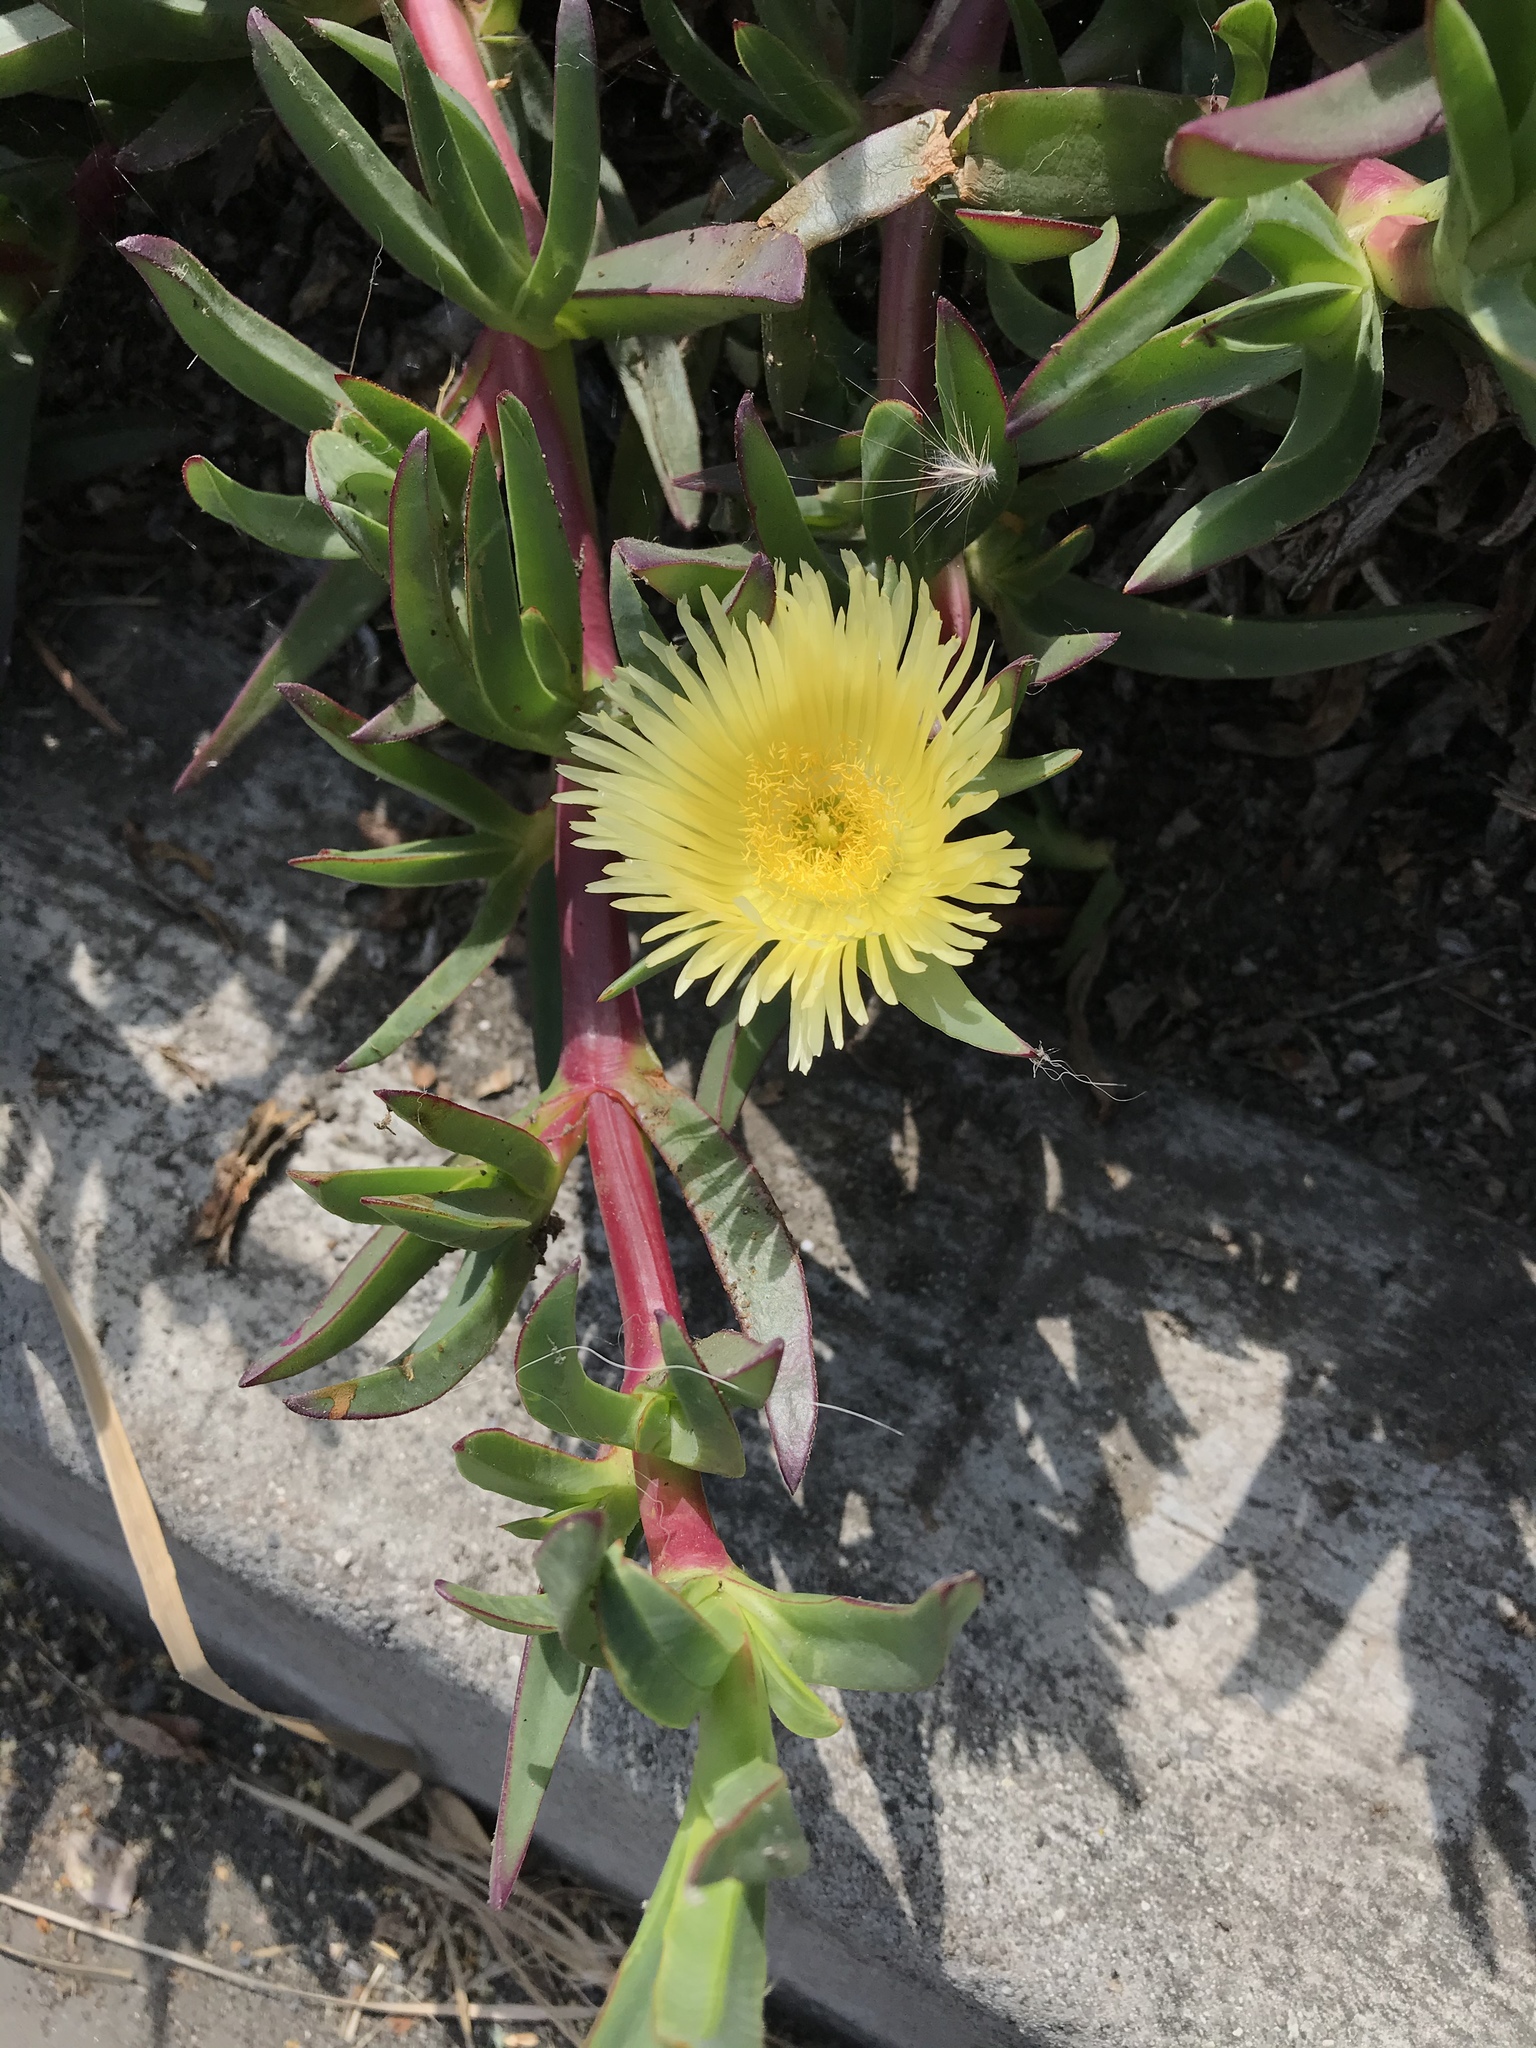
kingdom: Plantae
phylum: Tracheophyta
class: Magnoliopsida
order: Caryophyllales
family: Aizoaceae
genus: Carpobrotus
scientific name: Carpobrotus edulis
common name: Hottentot-fig
